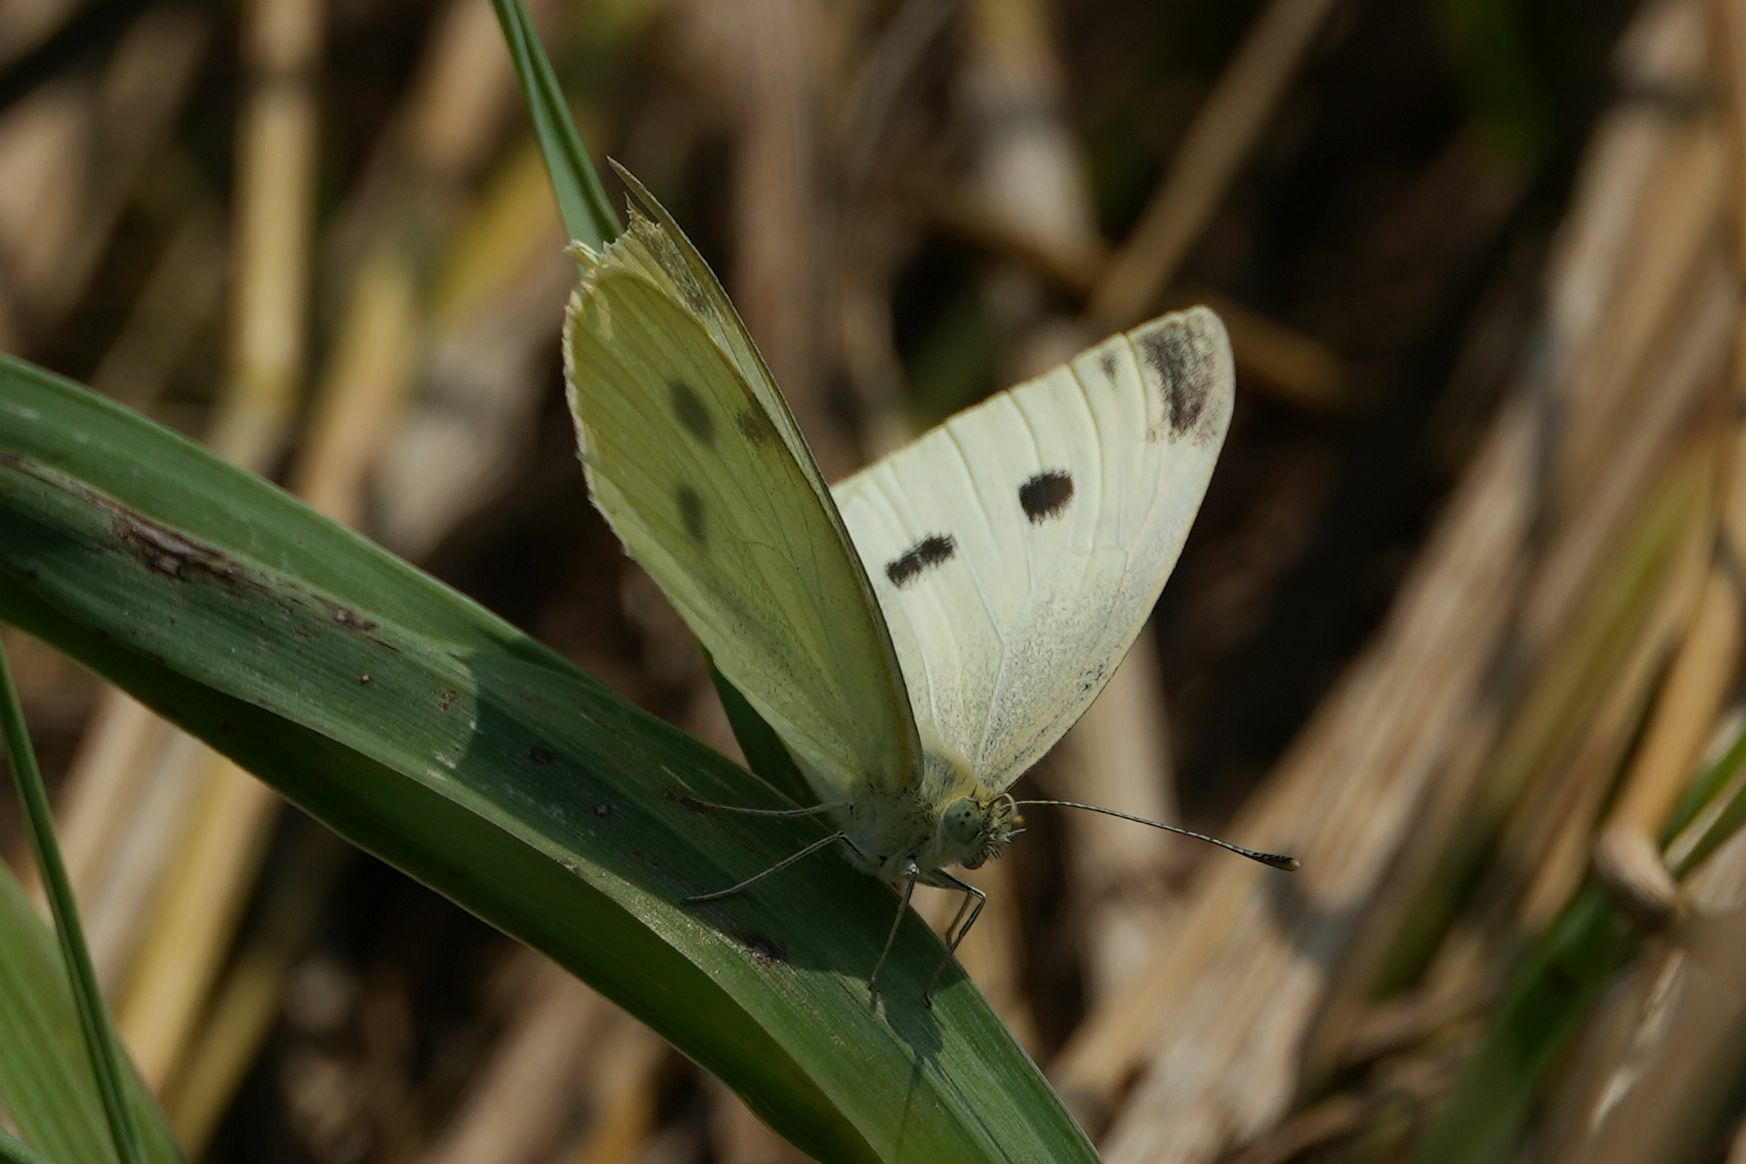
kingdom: Animalia
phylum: Arthropoda
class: Insecta
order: Lepidoptera
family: Pieridae
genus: Pieris
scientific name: Pieris rapae
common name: Small white
